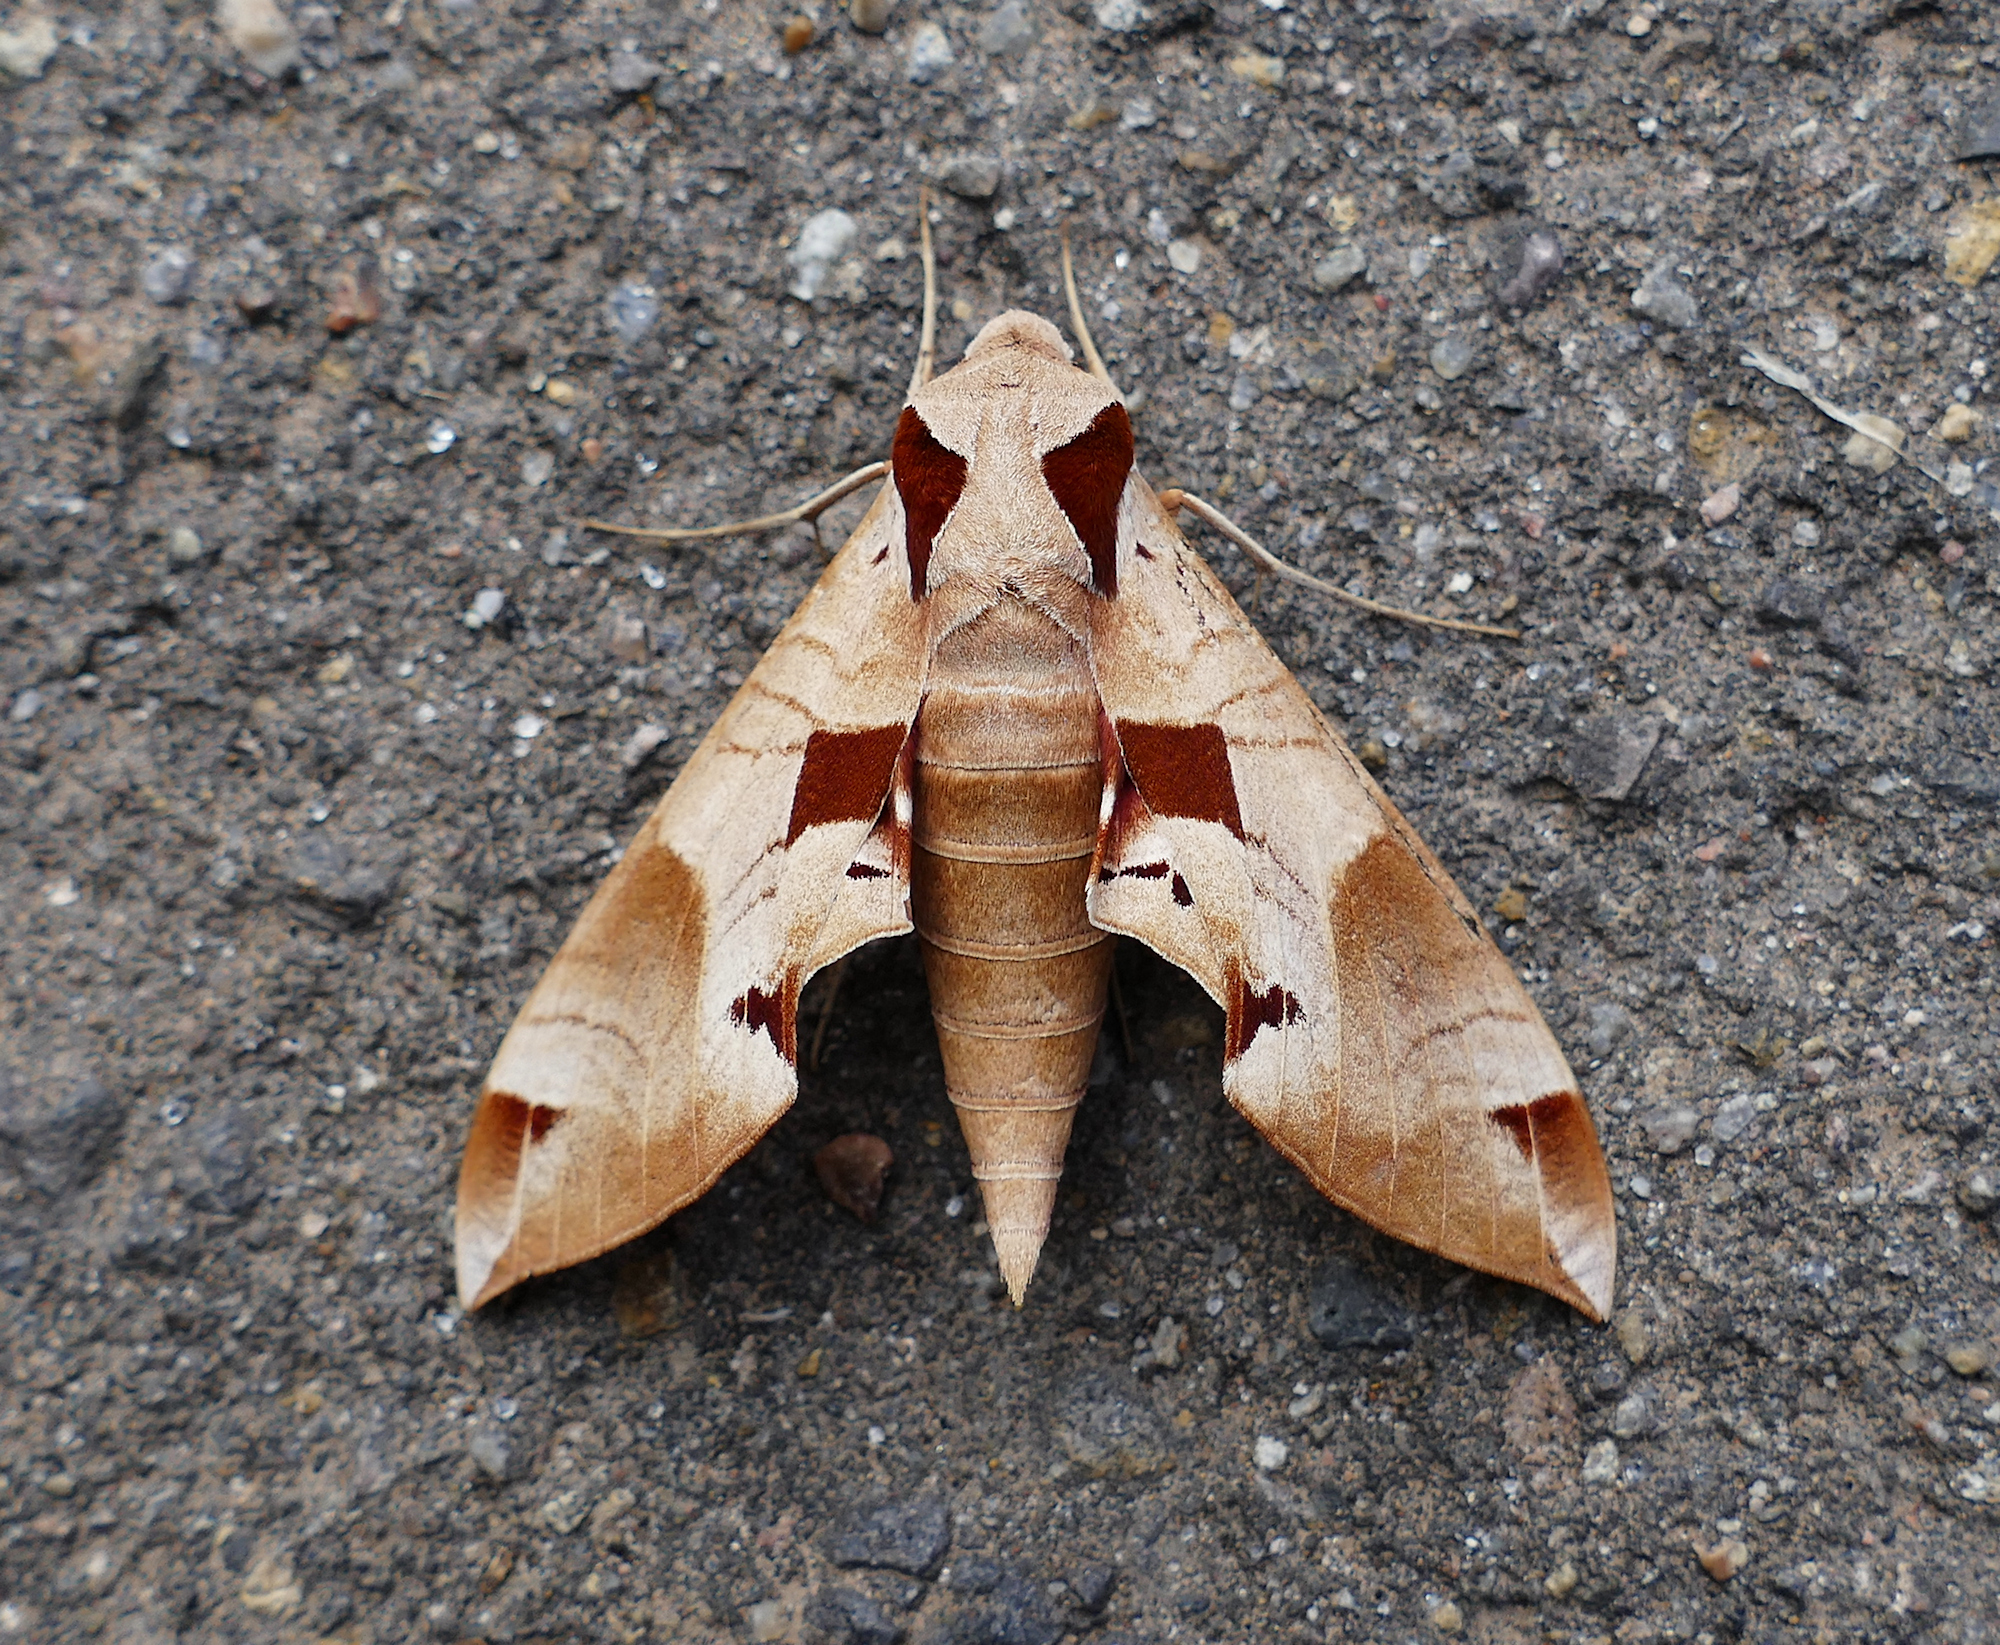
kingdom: Animalia
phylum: Arthropoda
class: Insecta
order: Lepidoptera
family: Sphingidae
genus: Eumorpha
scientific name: Eumorpha achemon
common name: Achemon sphinx
